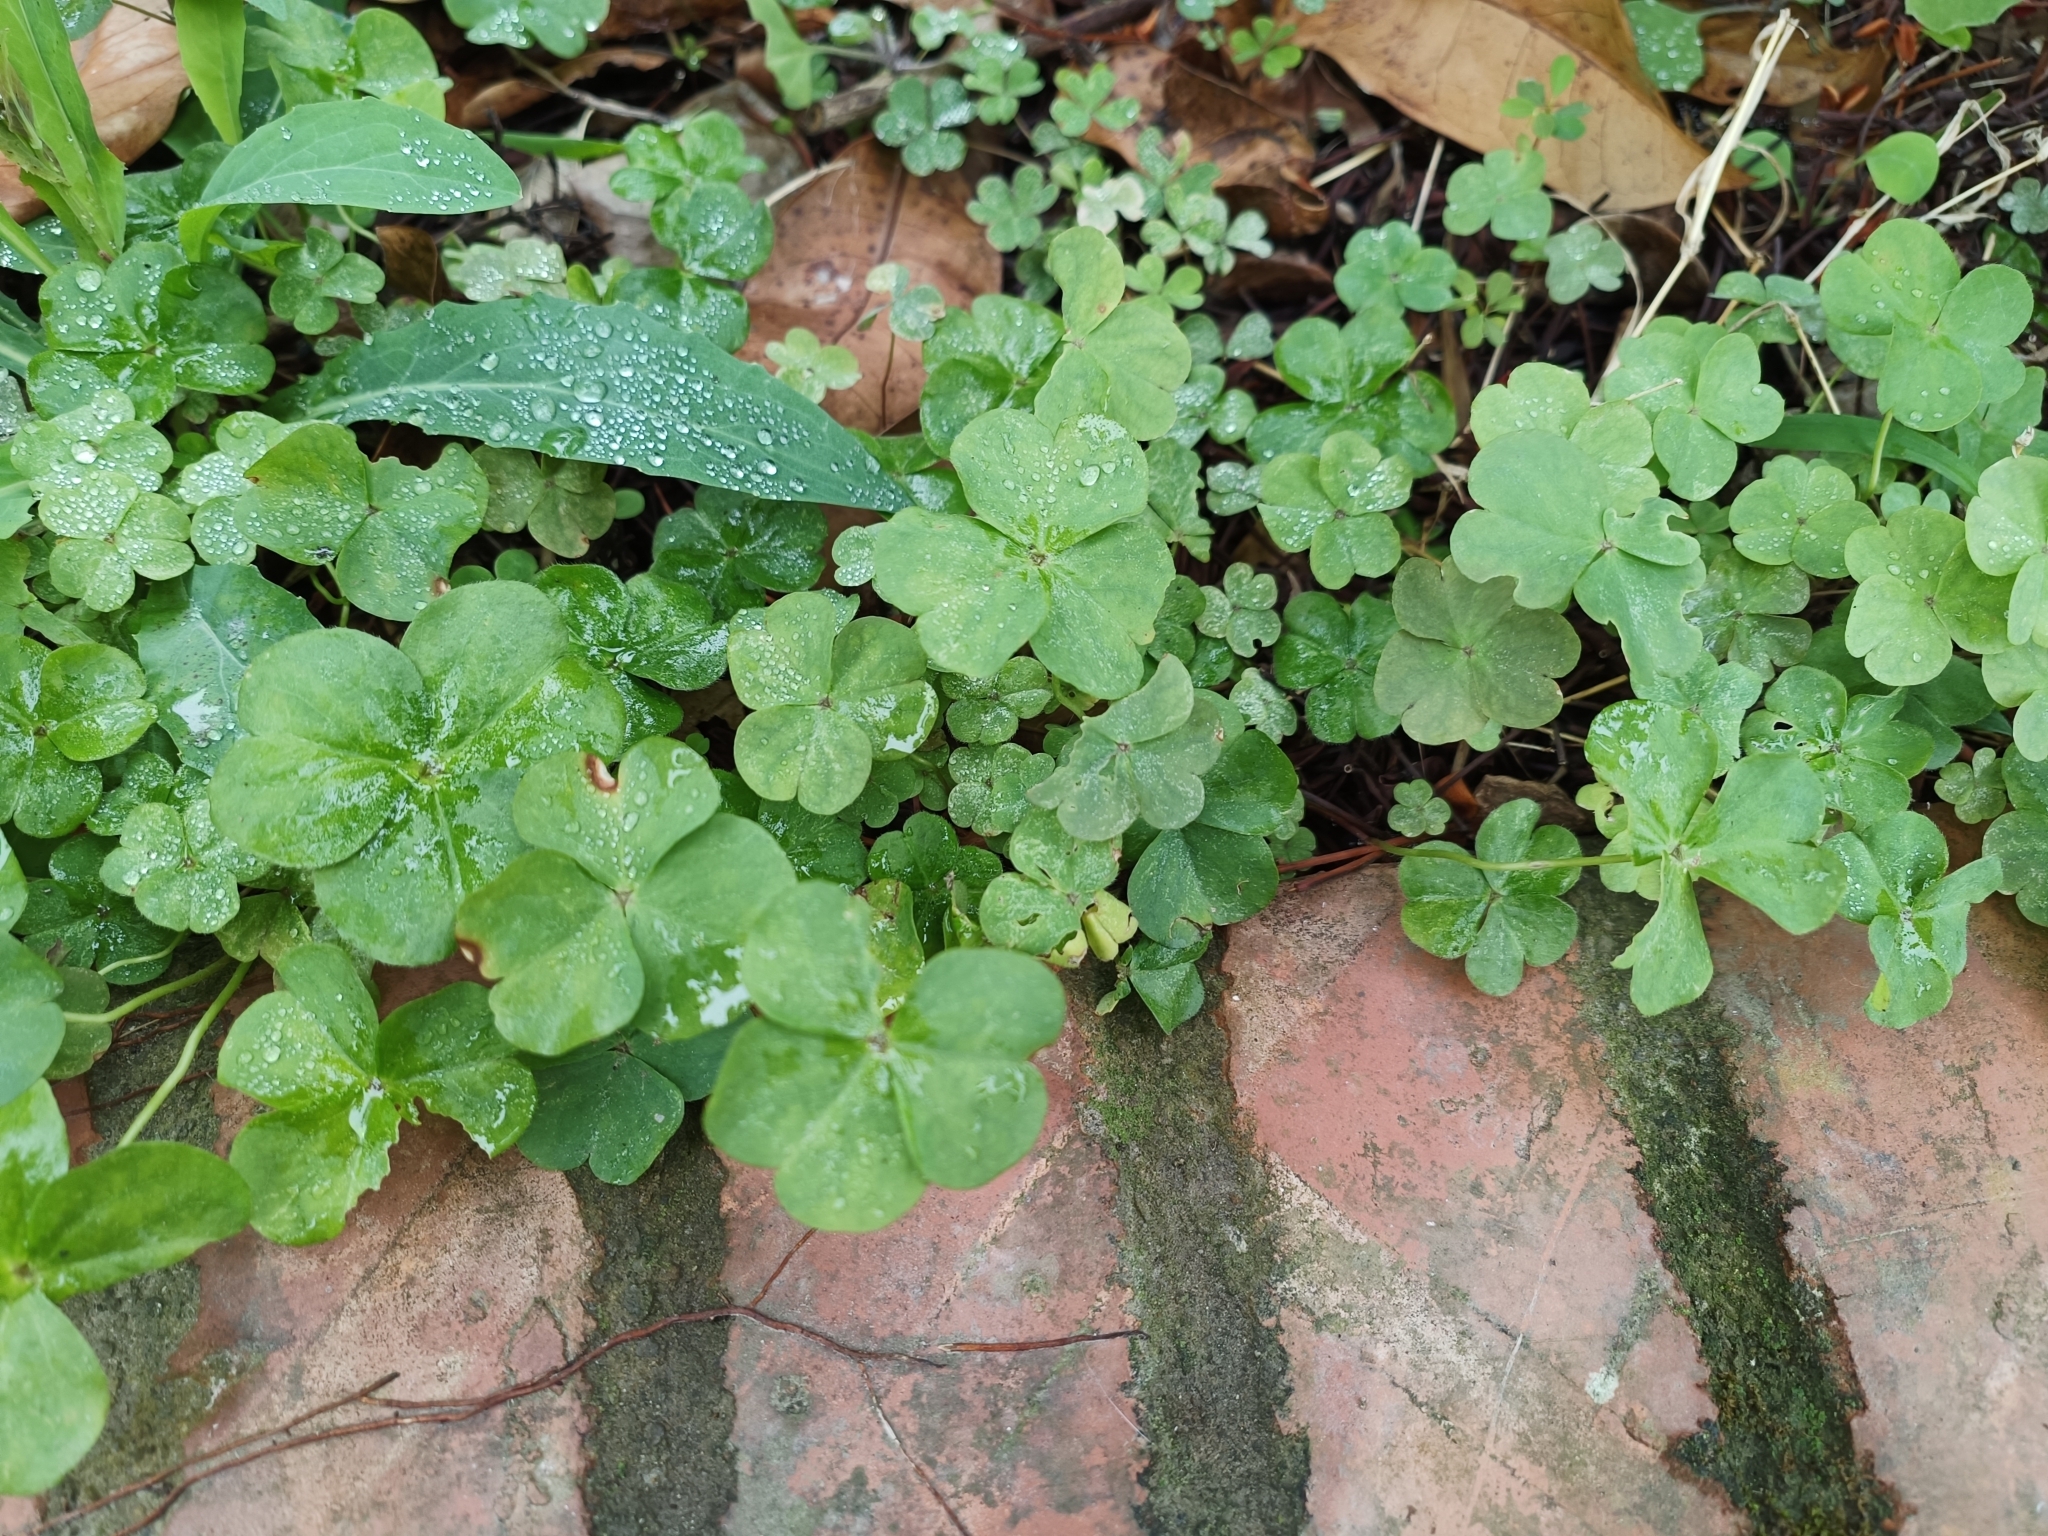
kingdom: Plantae
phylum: Tracheophyta
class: Magnoliopsida
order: Oxalidales
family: Oxalidaceae
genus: Oxalis
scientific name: Oxalis debilis
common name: Large-flowered pink-sorrel
